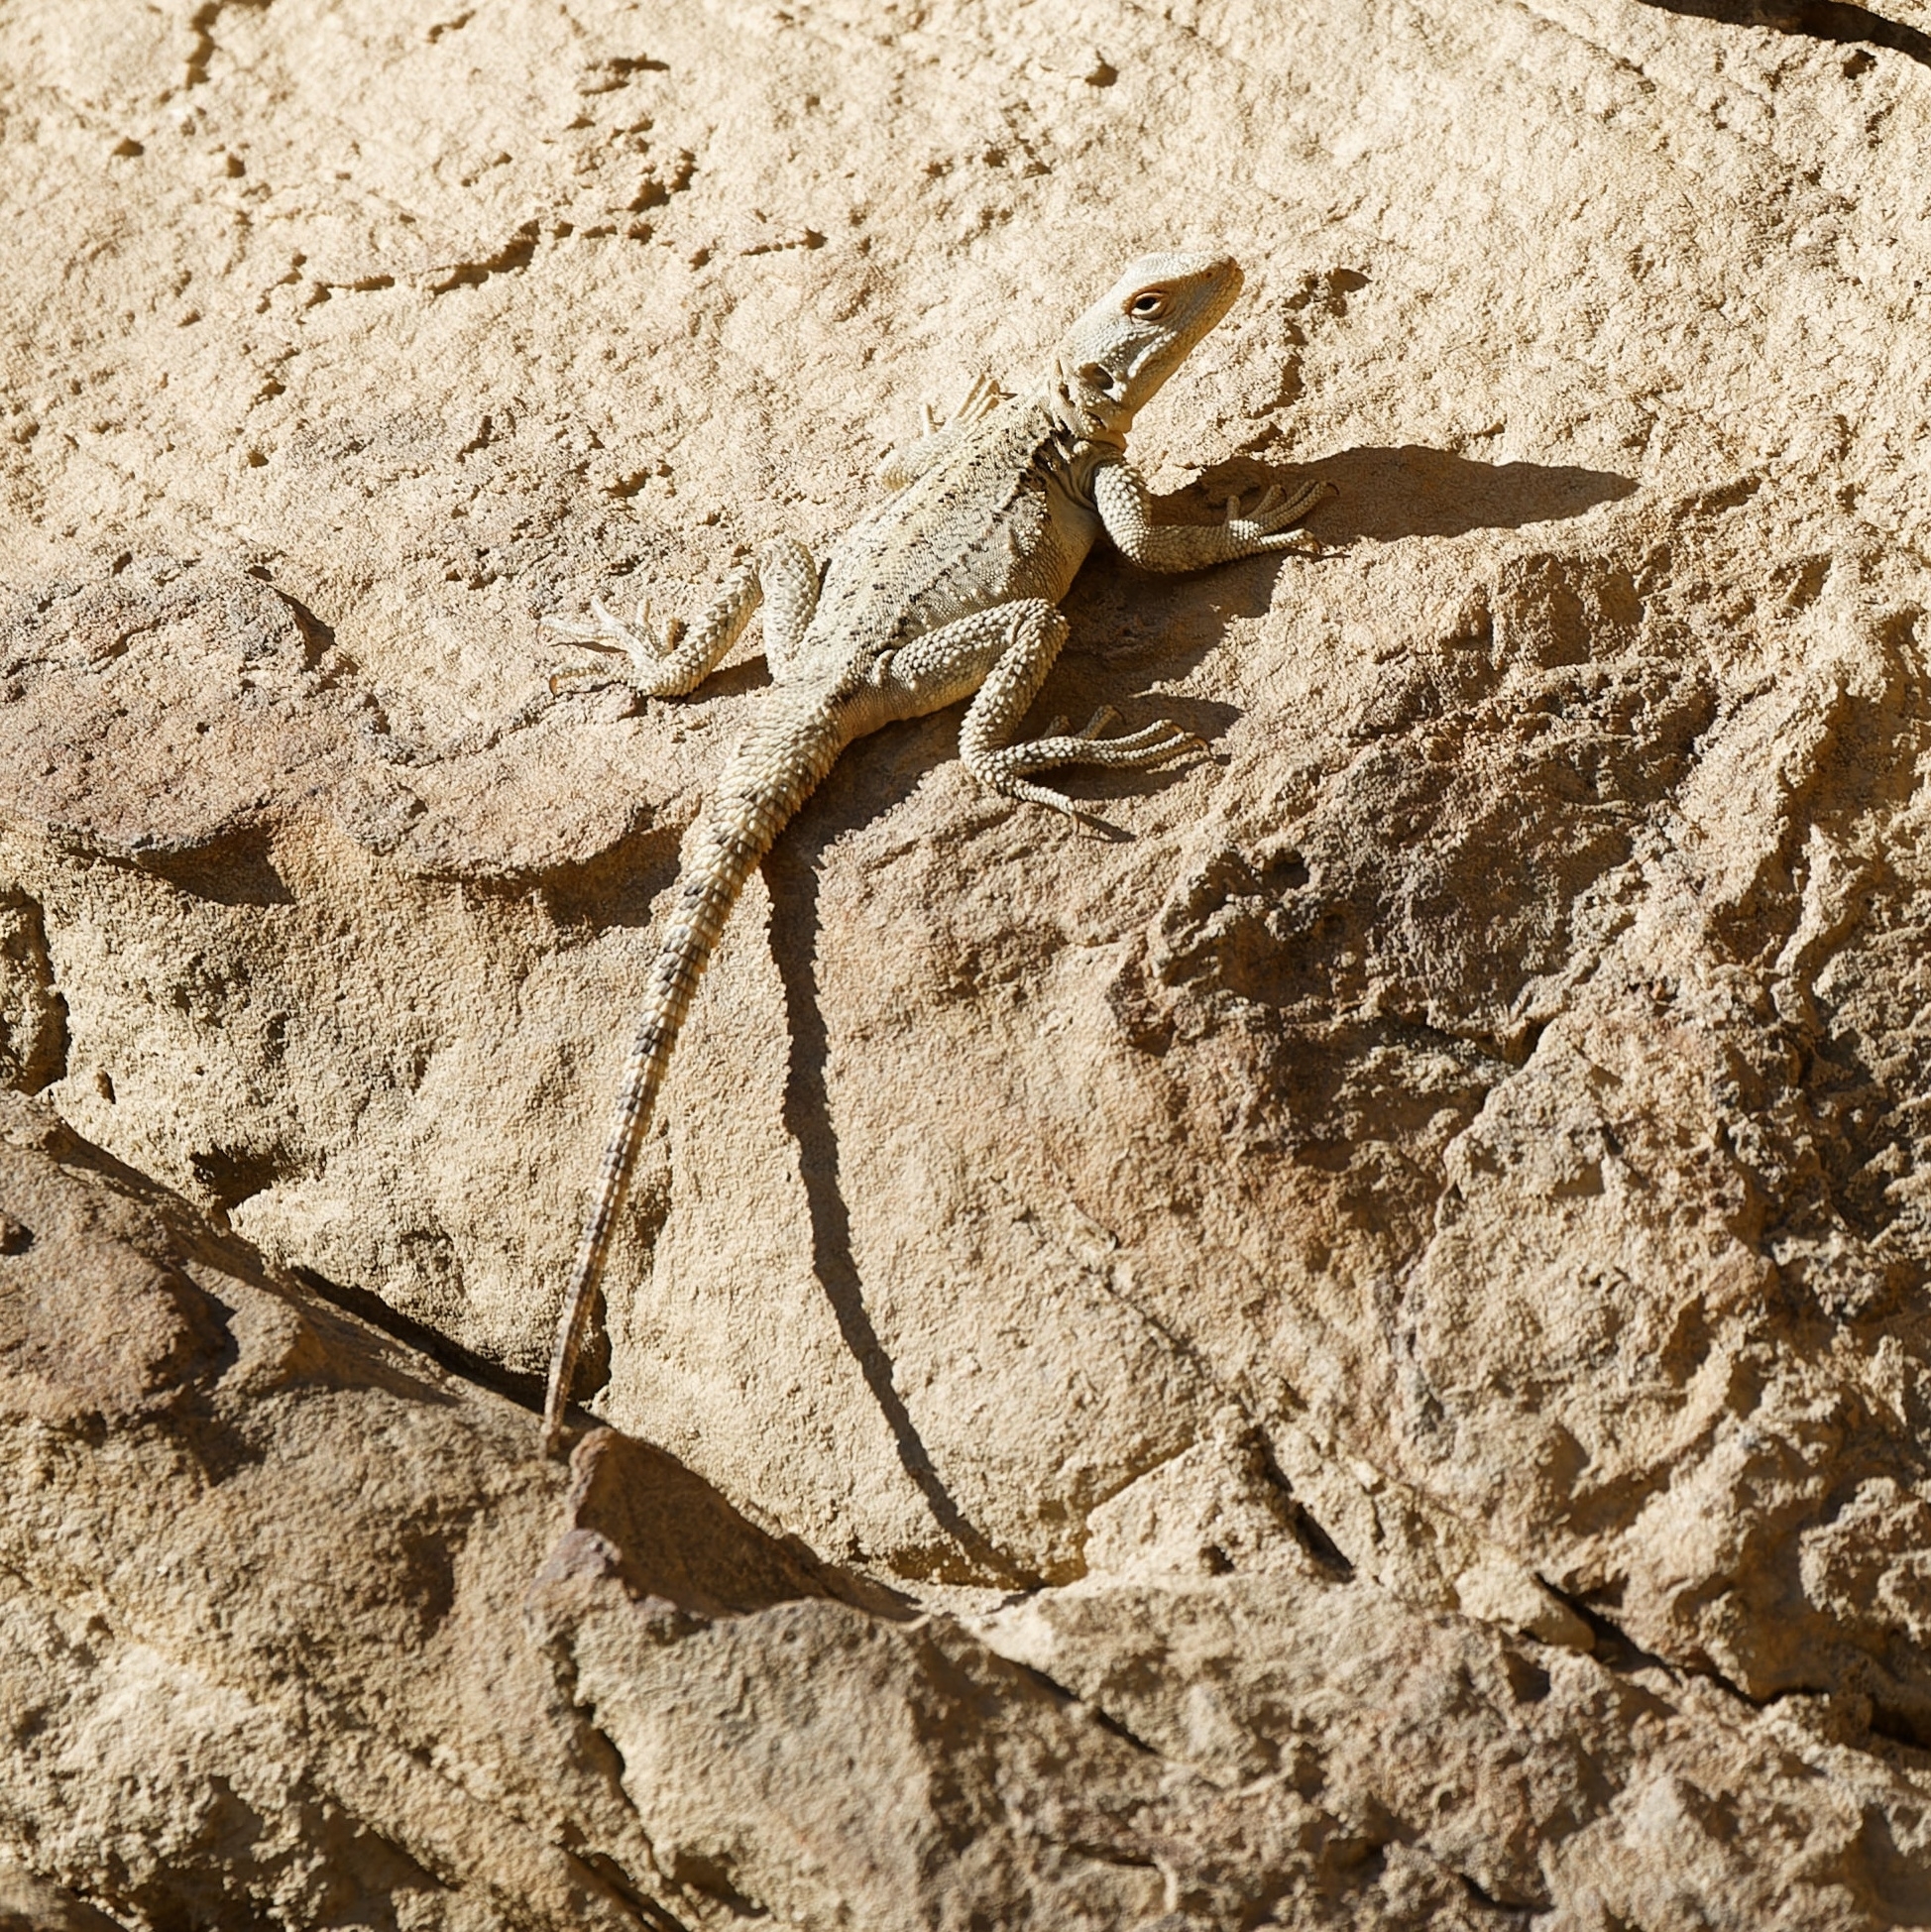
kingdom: Animalia
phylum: Chordata
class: Squamata
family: Agamidae
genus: Paralaudakia
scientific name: Paralaudakia caucasia
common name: Caucasian agama
